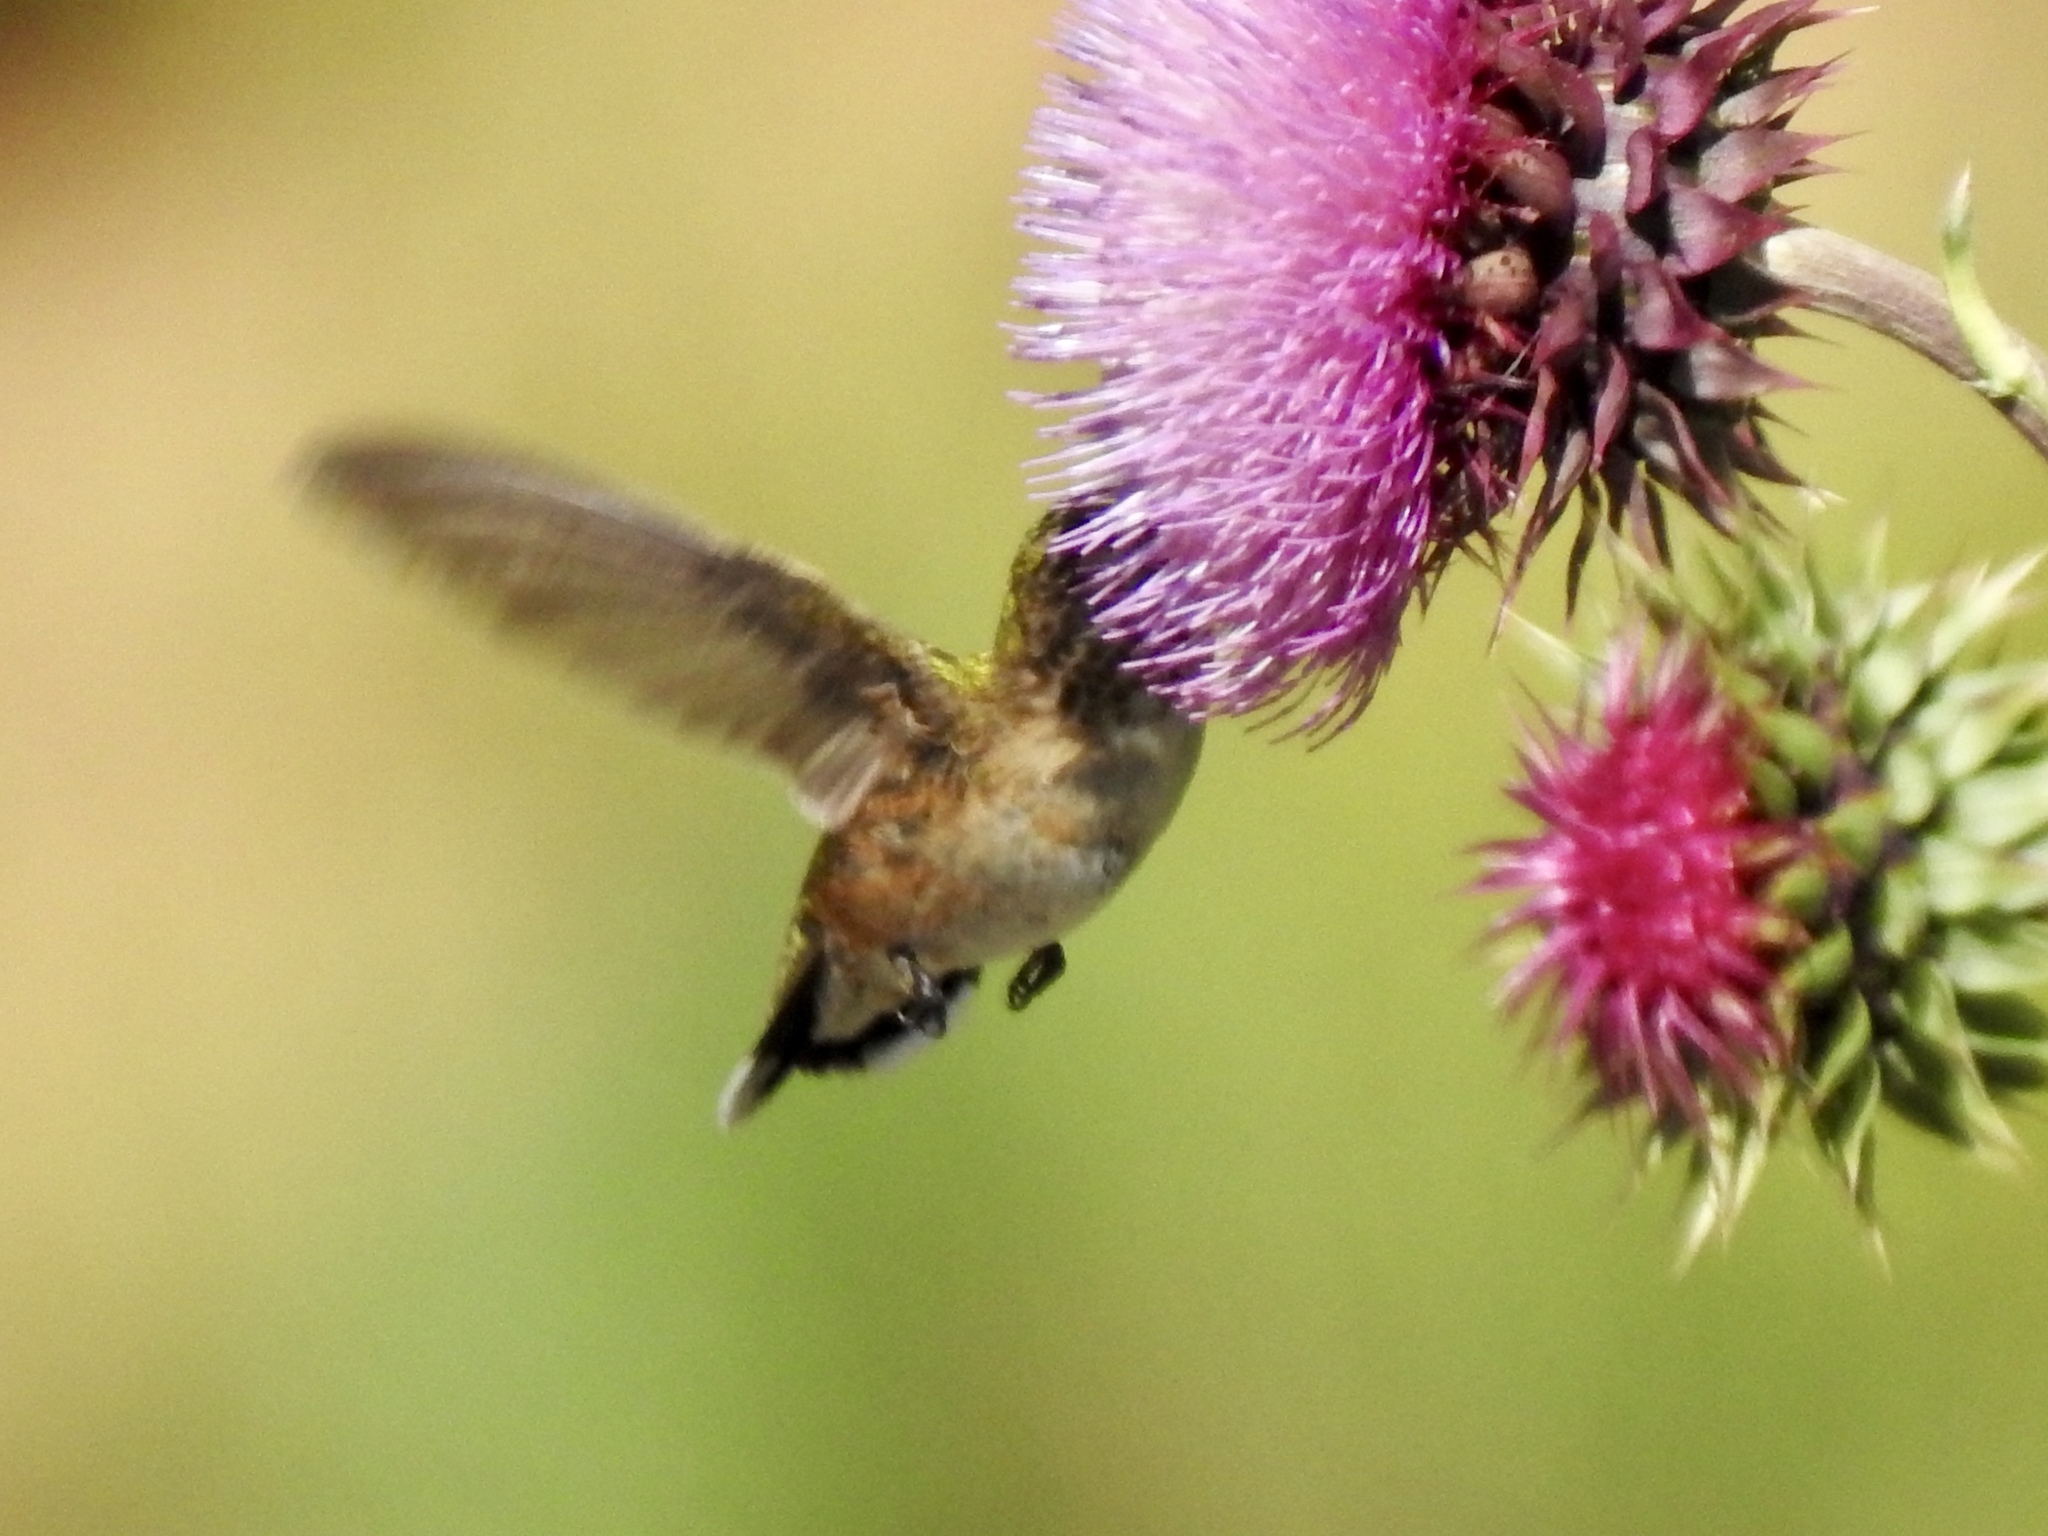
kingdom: Animalia
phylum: Chordata
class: Aves
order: Apodiformes
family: Trochilidae
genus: Selasphorus
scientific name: Selasphorus rufus
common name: Rufous hummingbird
